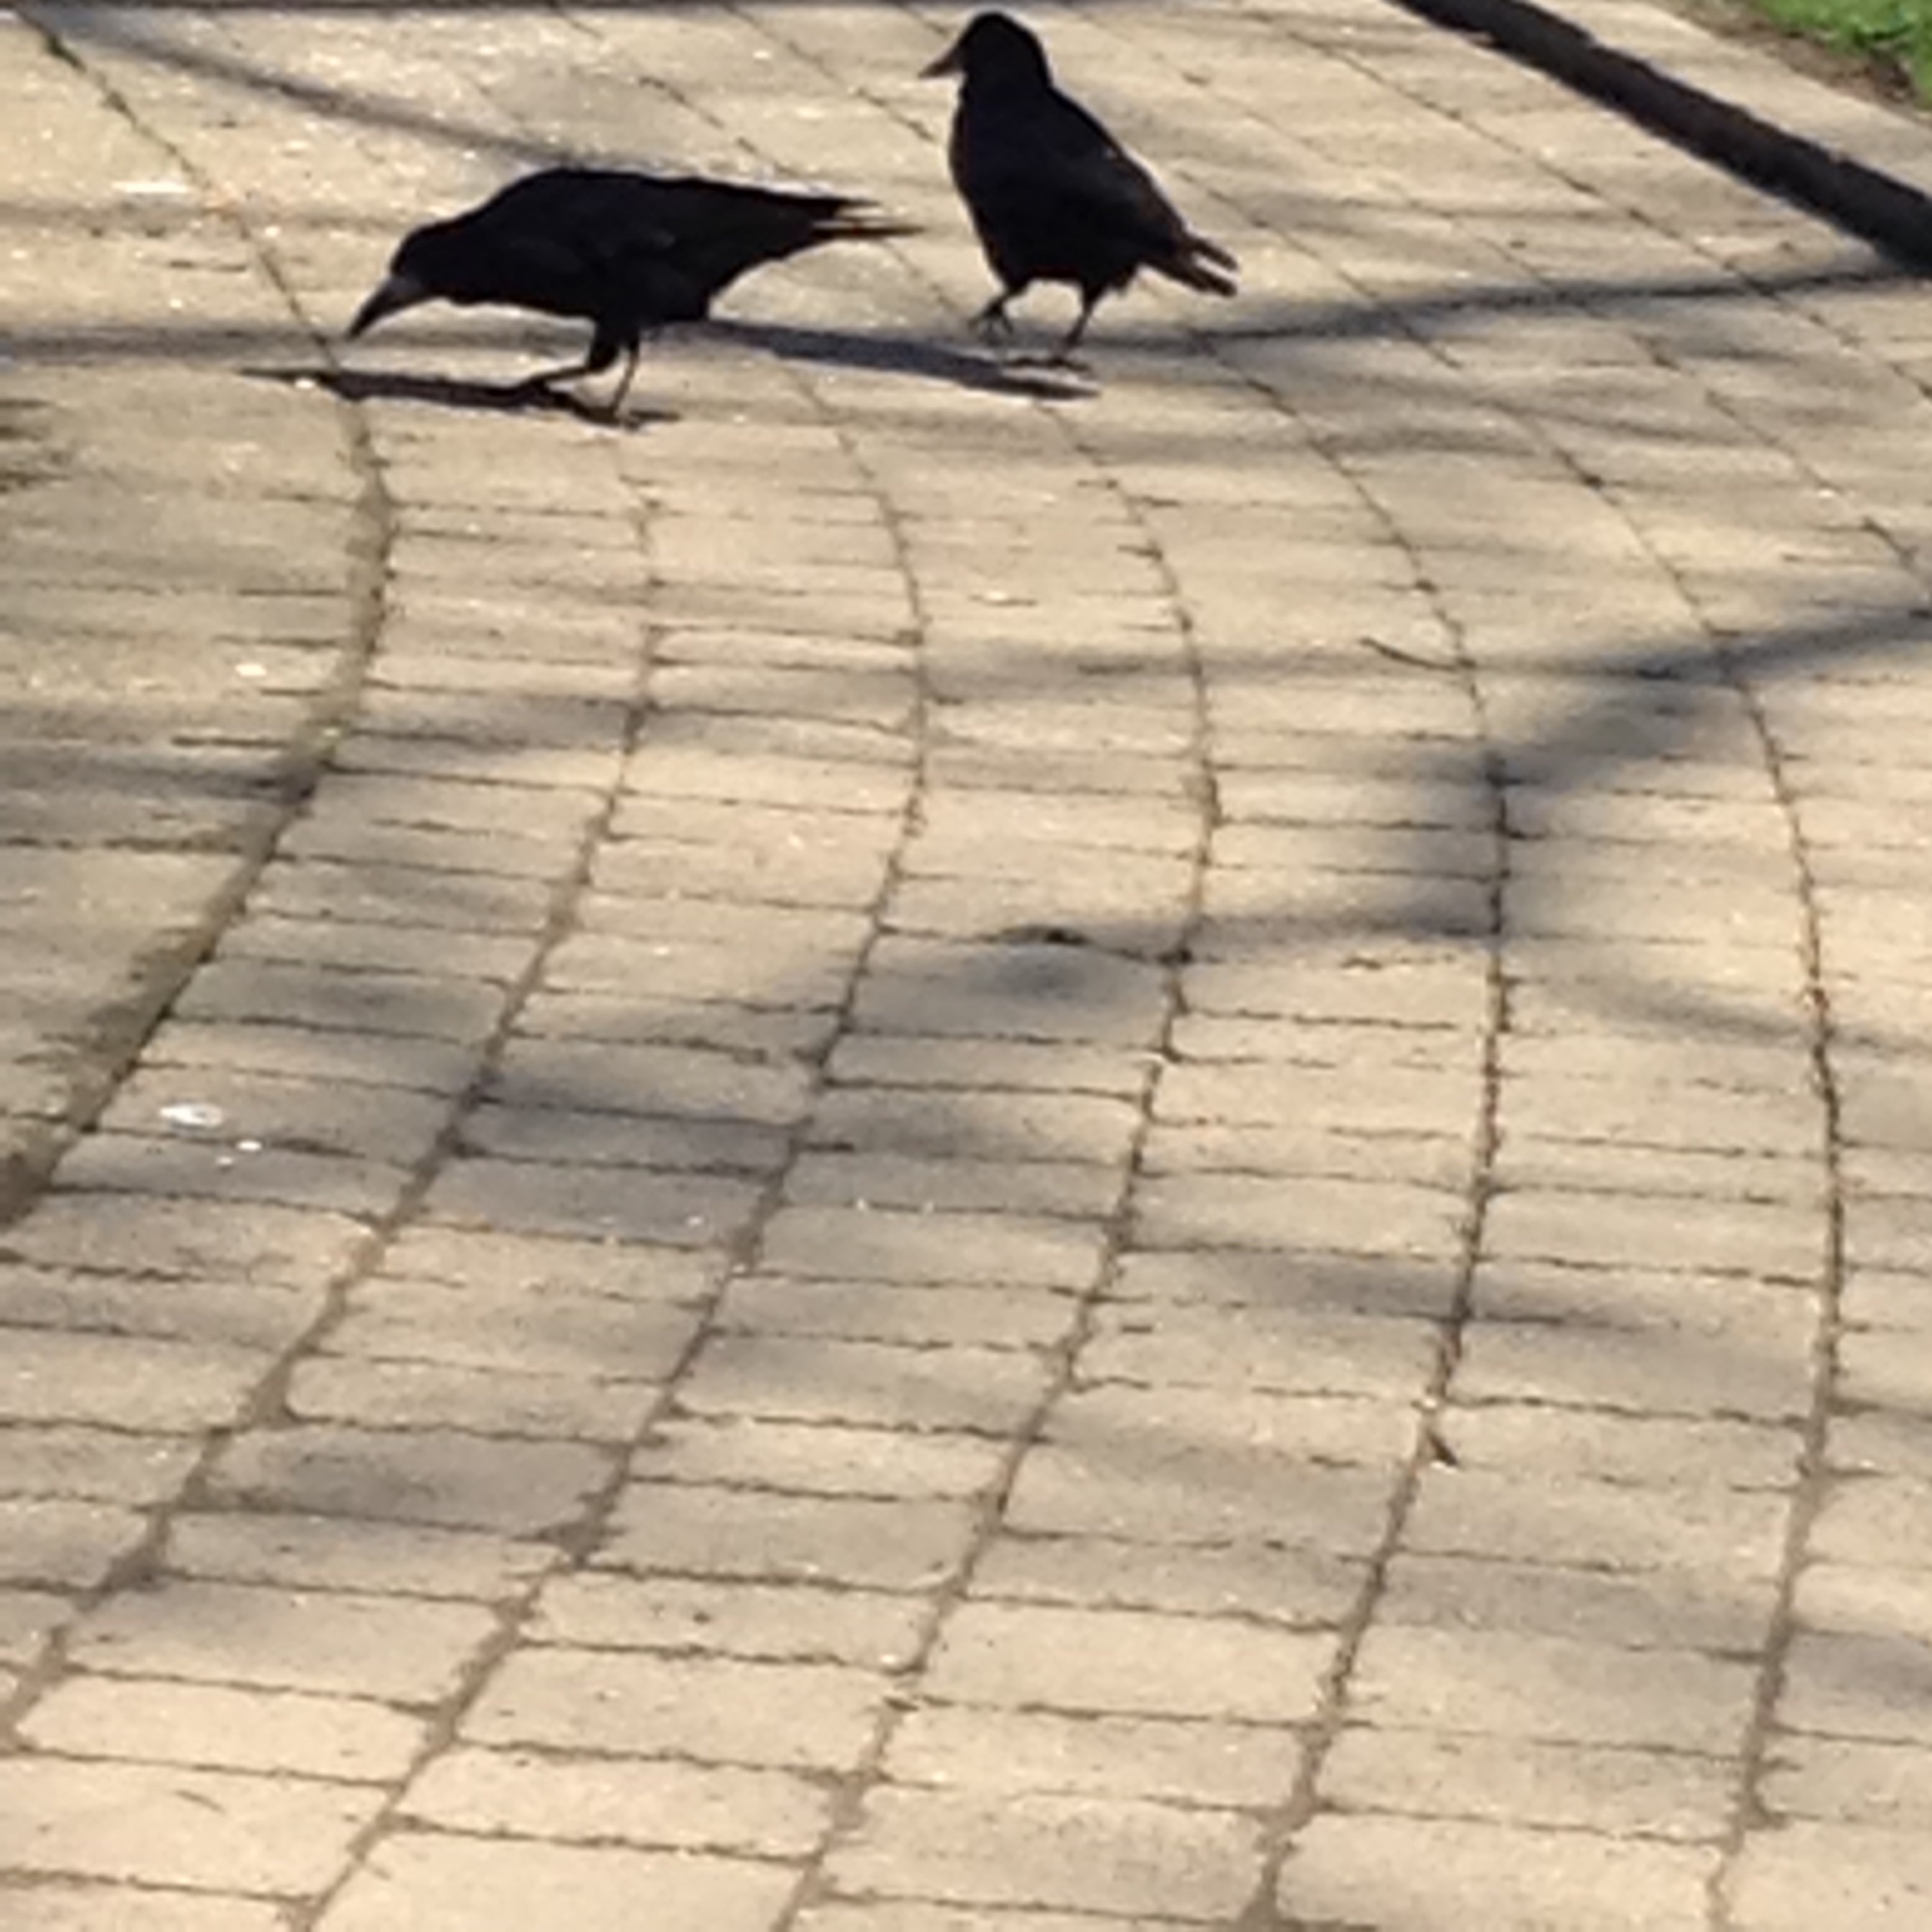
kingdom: Animalia
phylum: Chordata
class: Aves
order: Passeriformes
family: Corvidae
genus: Corvus
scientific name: Corvus frugilegus
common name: Rook
